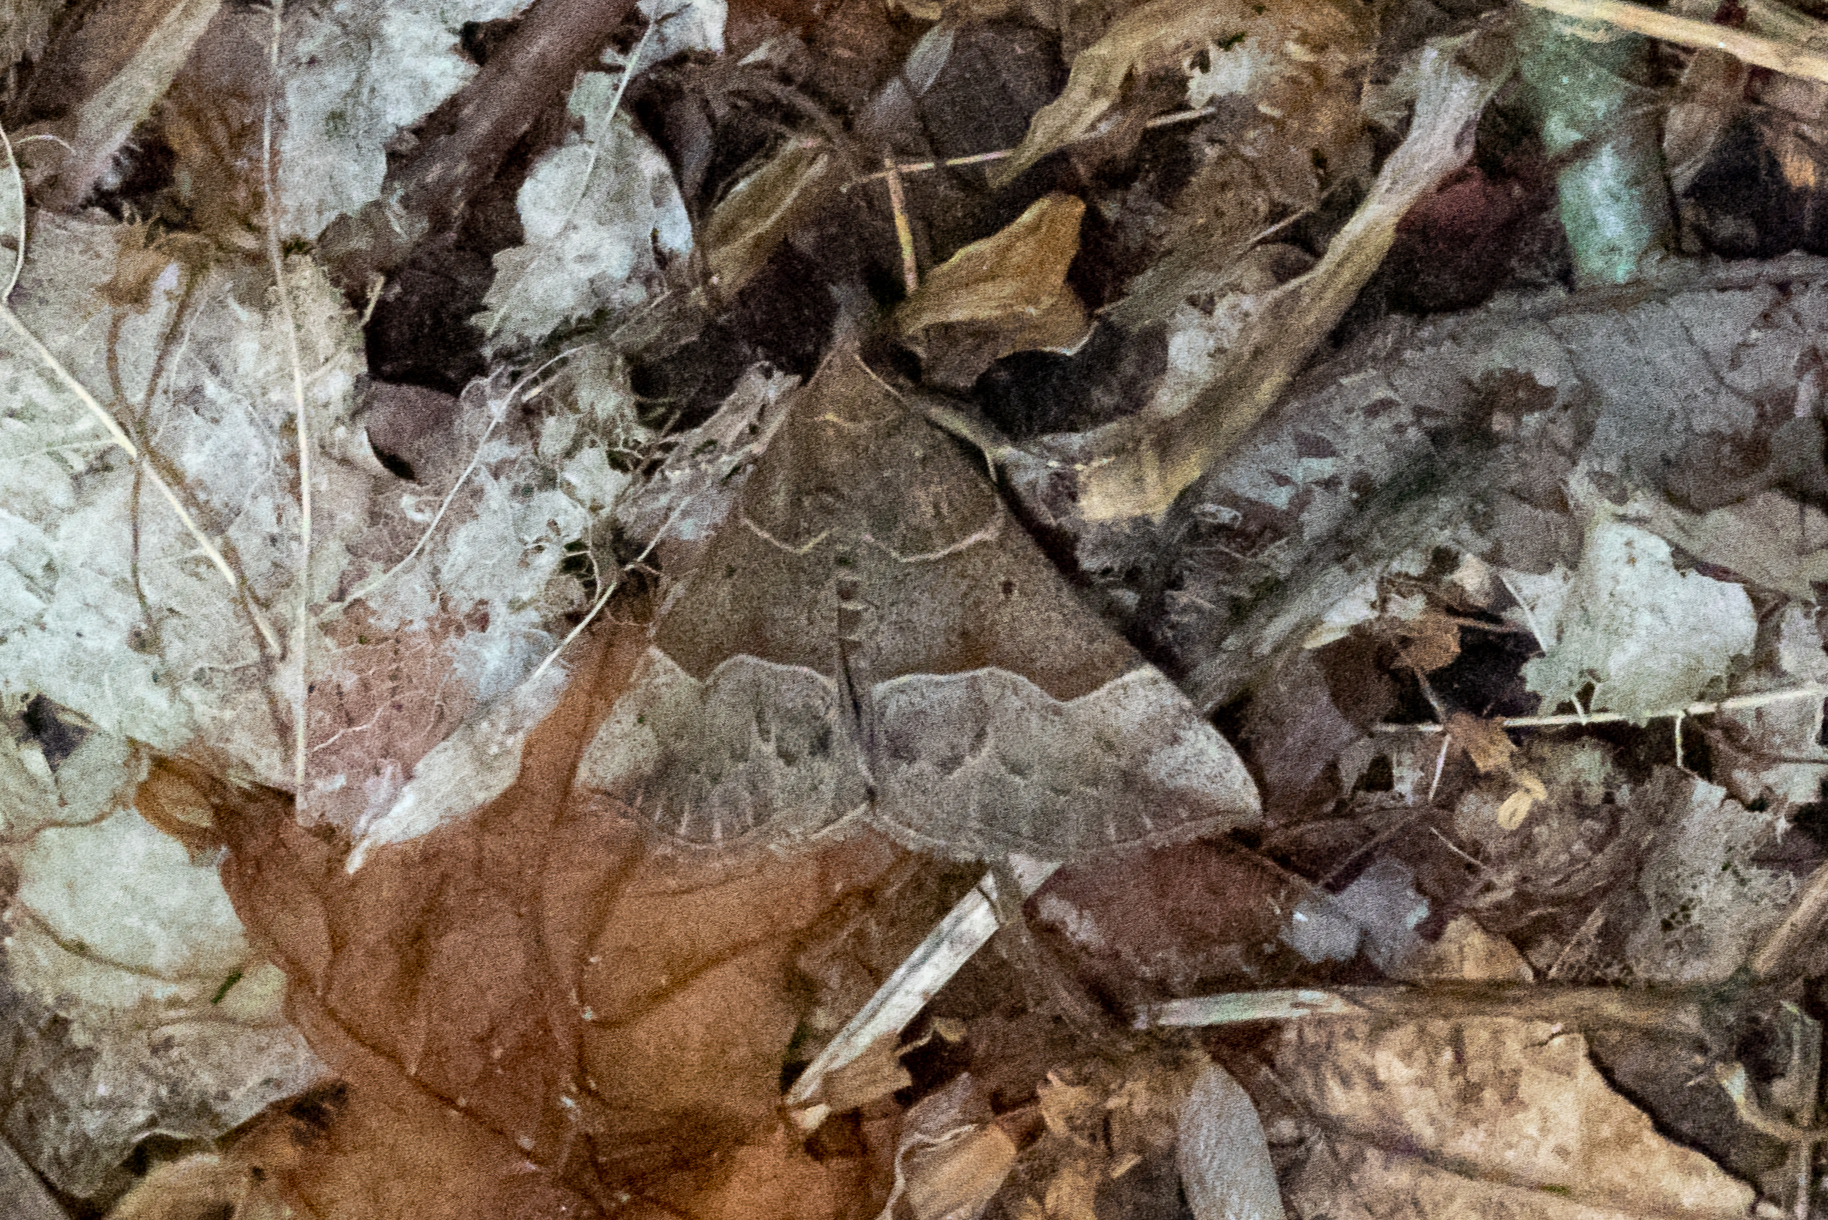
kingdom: Animalia
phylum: Arthropoda
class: Insecta
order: Lepidoptera
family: Erebidae
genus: Hypena
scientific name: Hypena deceptalis
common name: Deceptive snout
